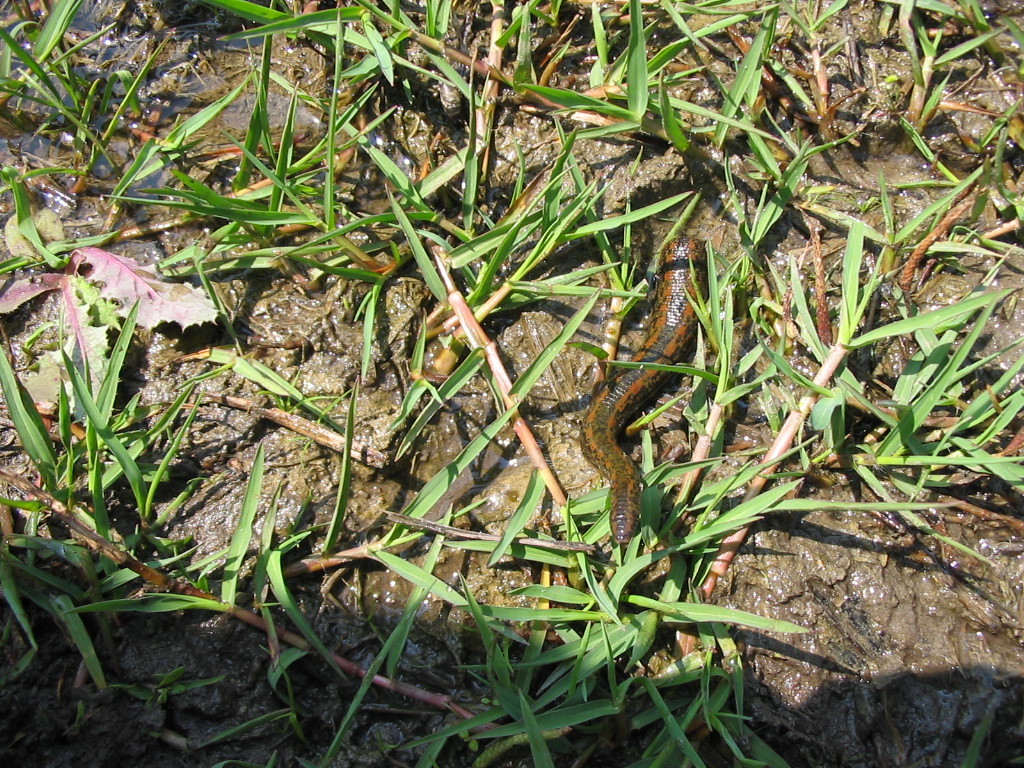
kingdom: Animalia
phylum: Annelida
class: Clitellata
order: Arhynchobdellida
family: Hirudinidae
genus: Hirudo
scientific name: Hirudo verbana
